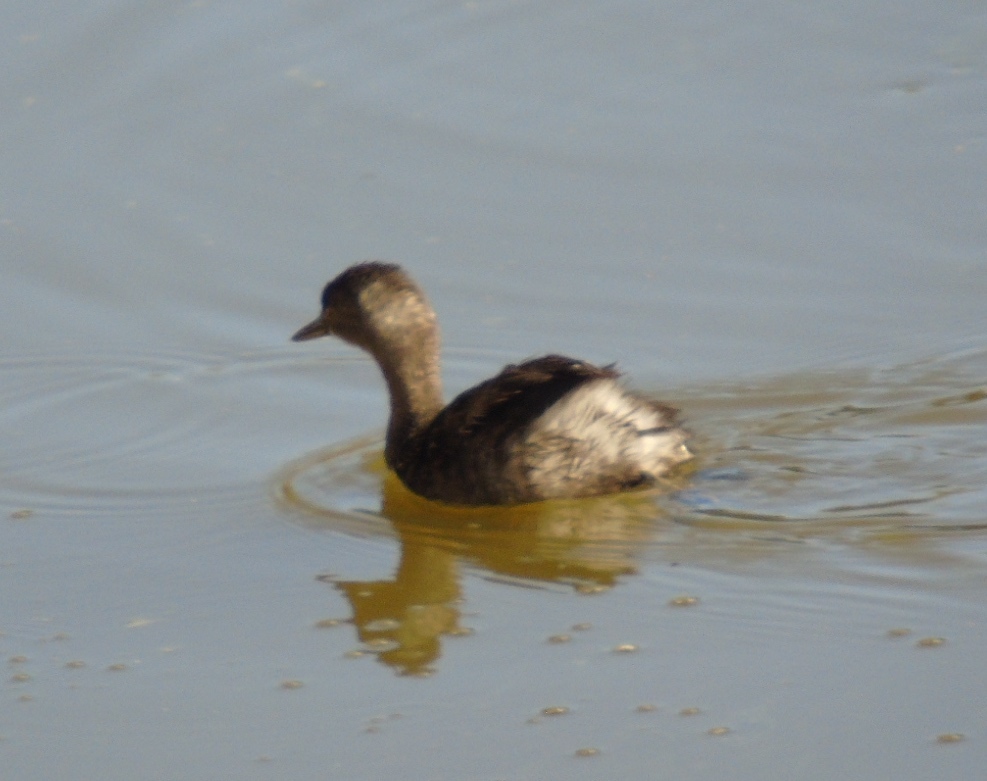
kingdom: Animalia
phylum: Chordata
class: Aves
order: Podicipediformes
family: Podicipedidae
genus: Tachybaptus
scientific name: Tachybaptus dominicus
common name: Least grebe
